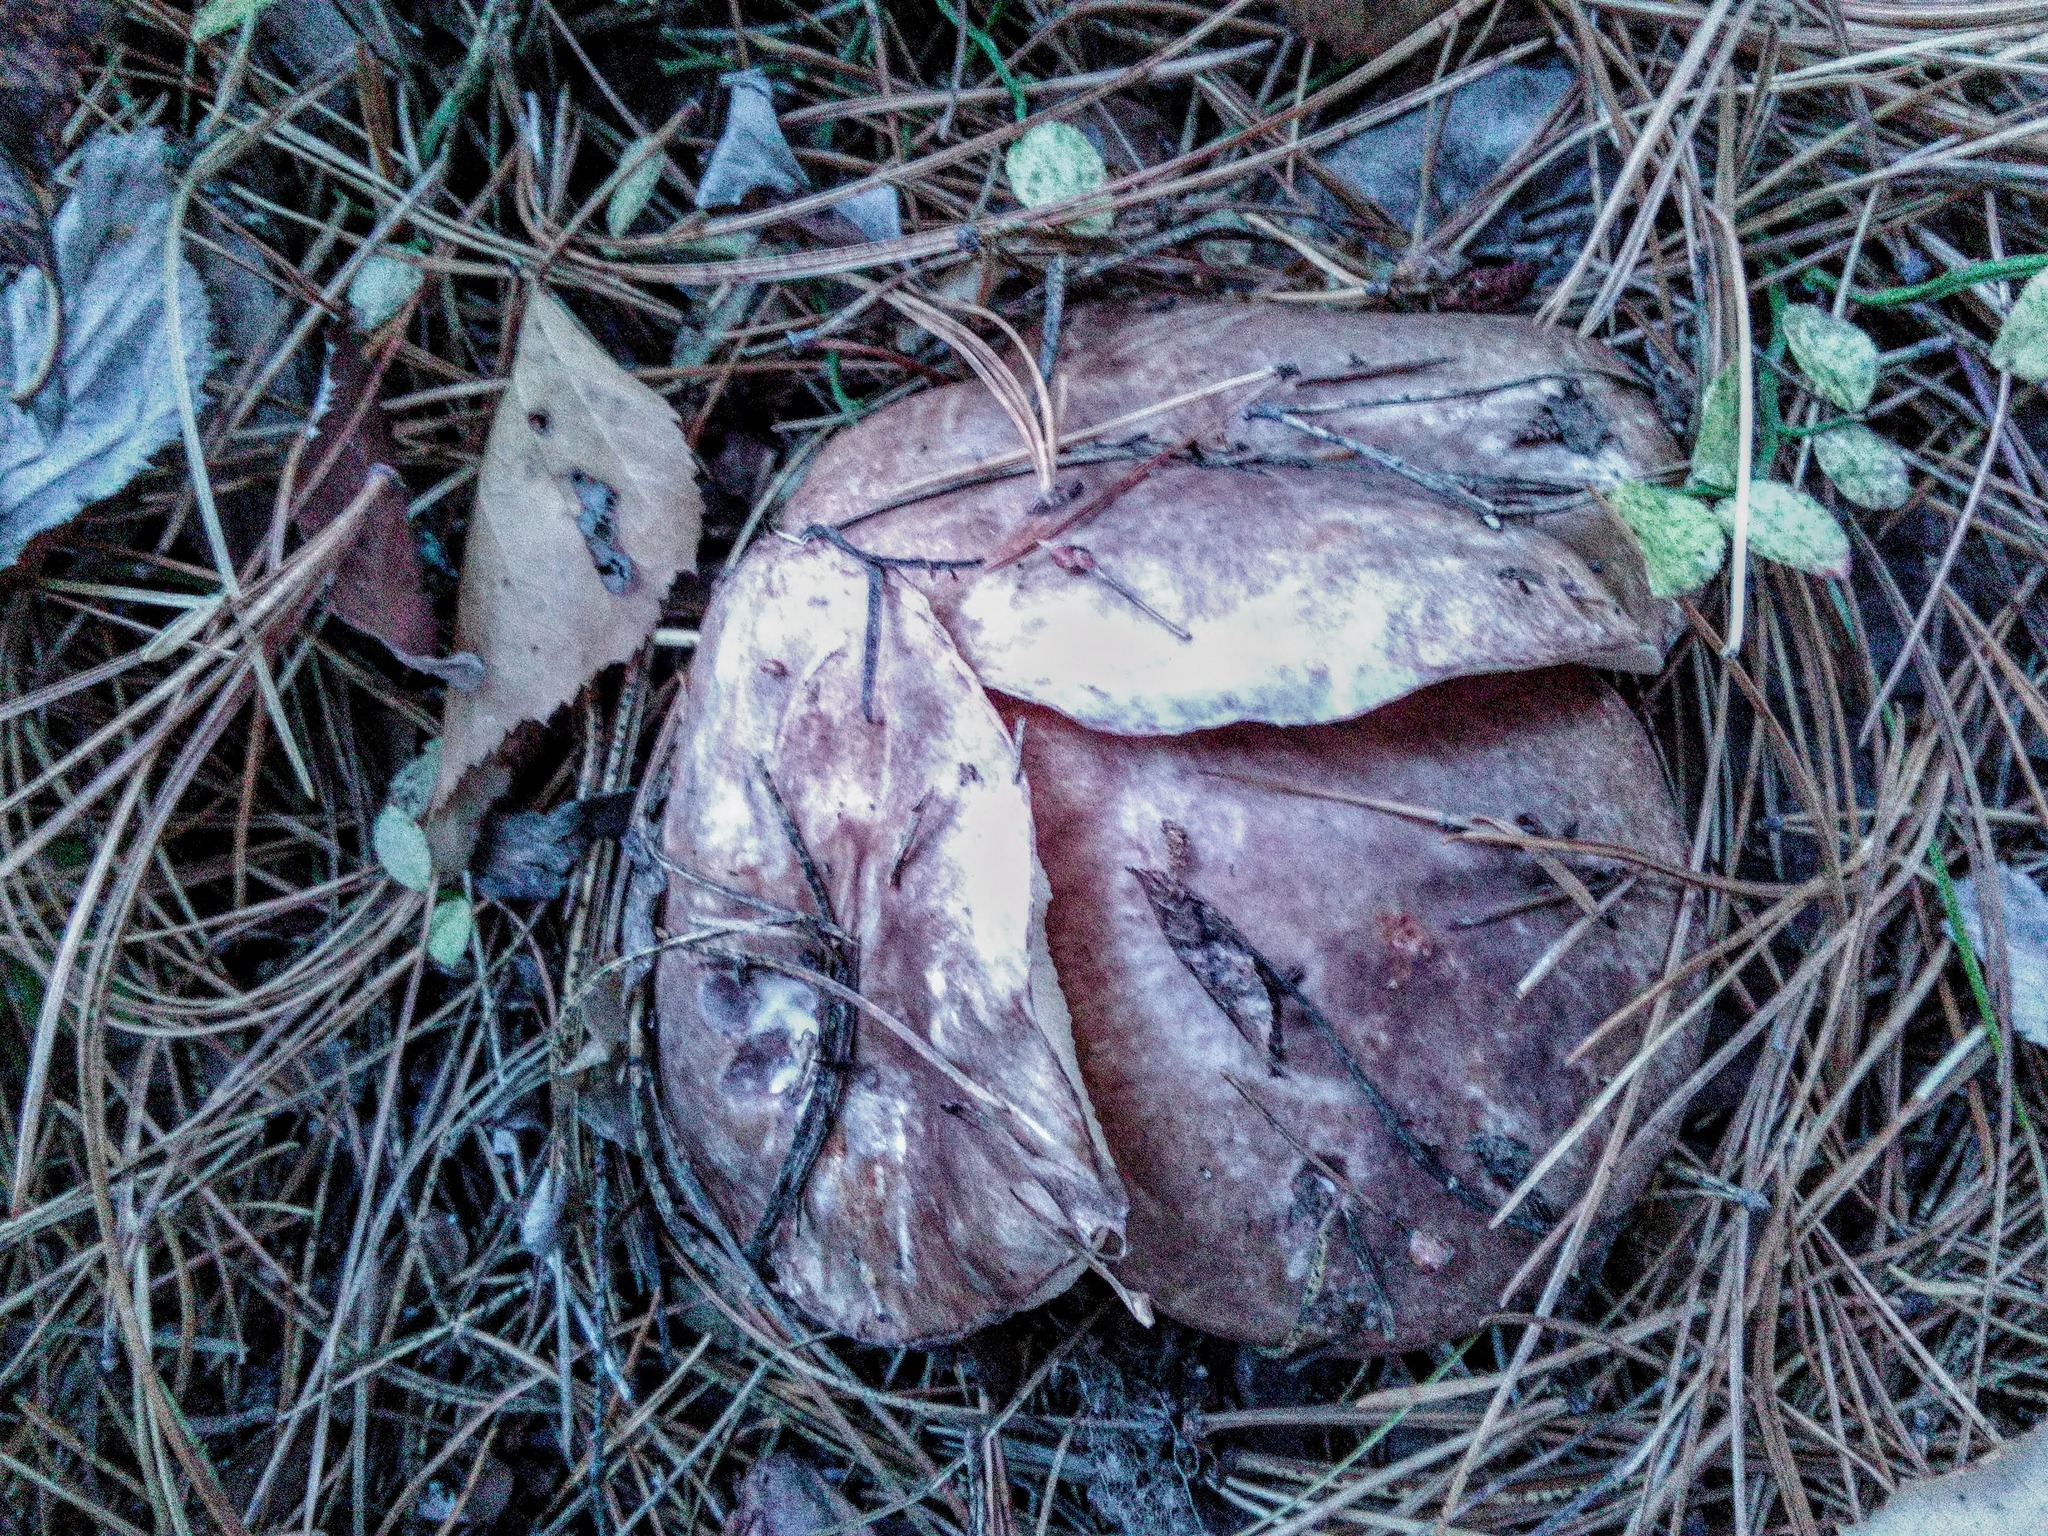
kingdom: Fungi
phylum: Basidiomycota
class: Agaricomycetes
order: Boletales
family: Suillaceae
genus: Suillus
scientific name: Suillus placidus
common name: Slippery white bolete
